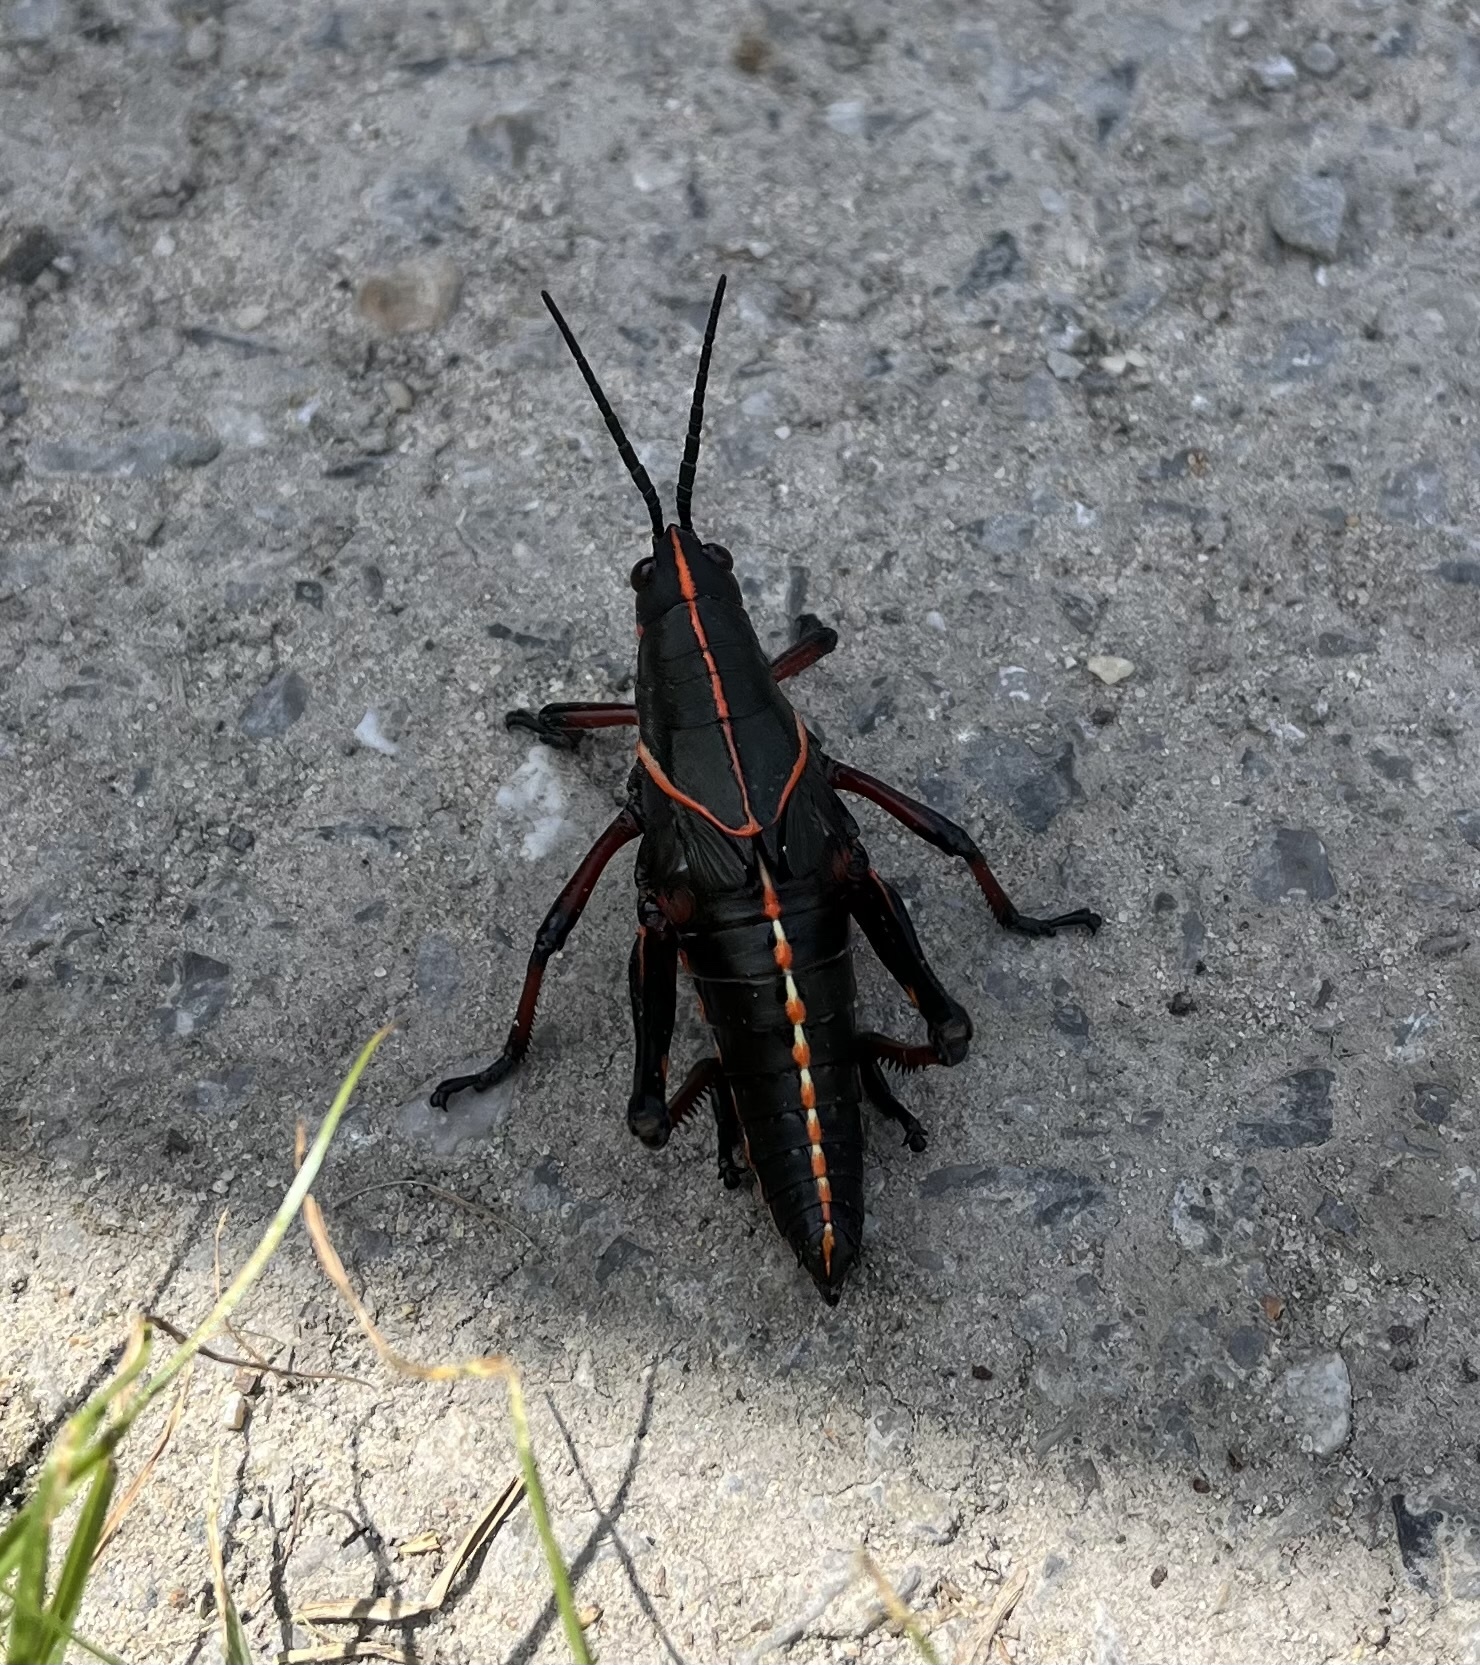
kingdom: Animalia
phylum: Arthropoda
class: Insecta
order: Orthoptera
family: Romaleidae
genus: Romalea
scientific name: Romalea microptera
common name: Eastern lubber grasshopper
